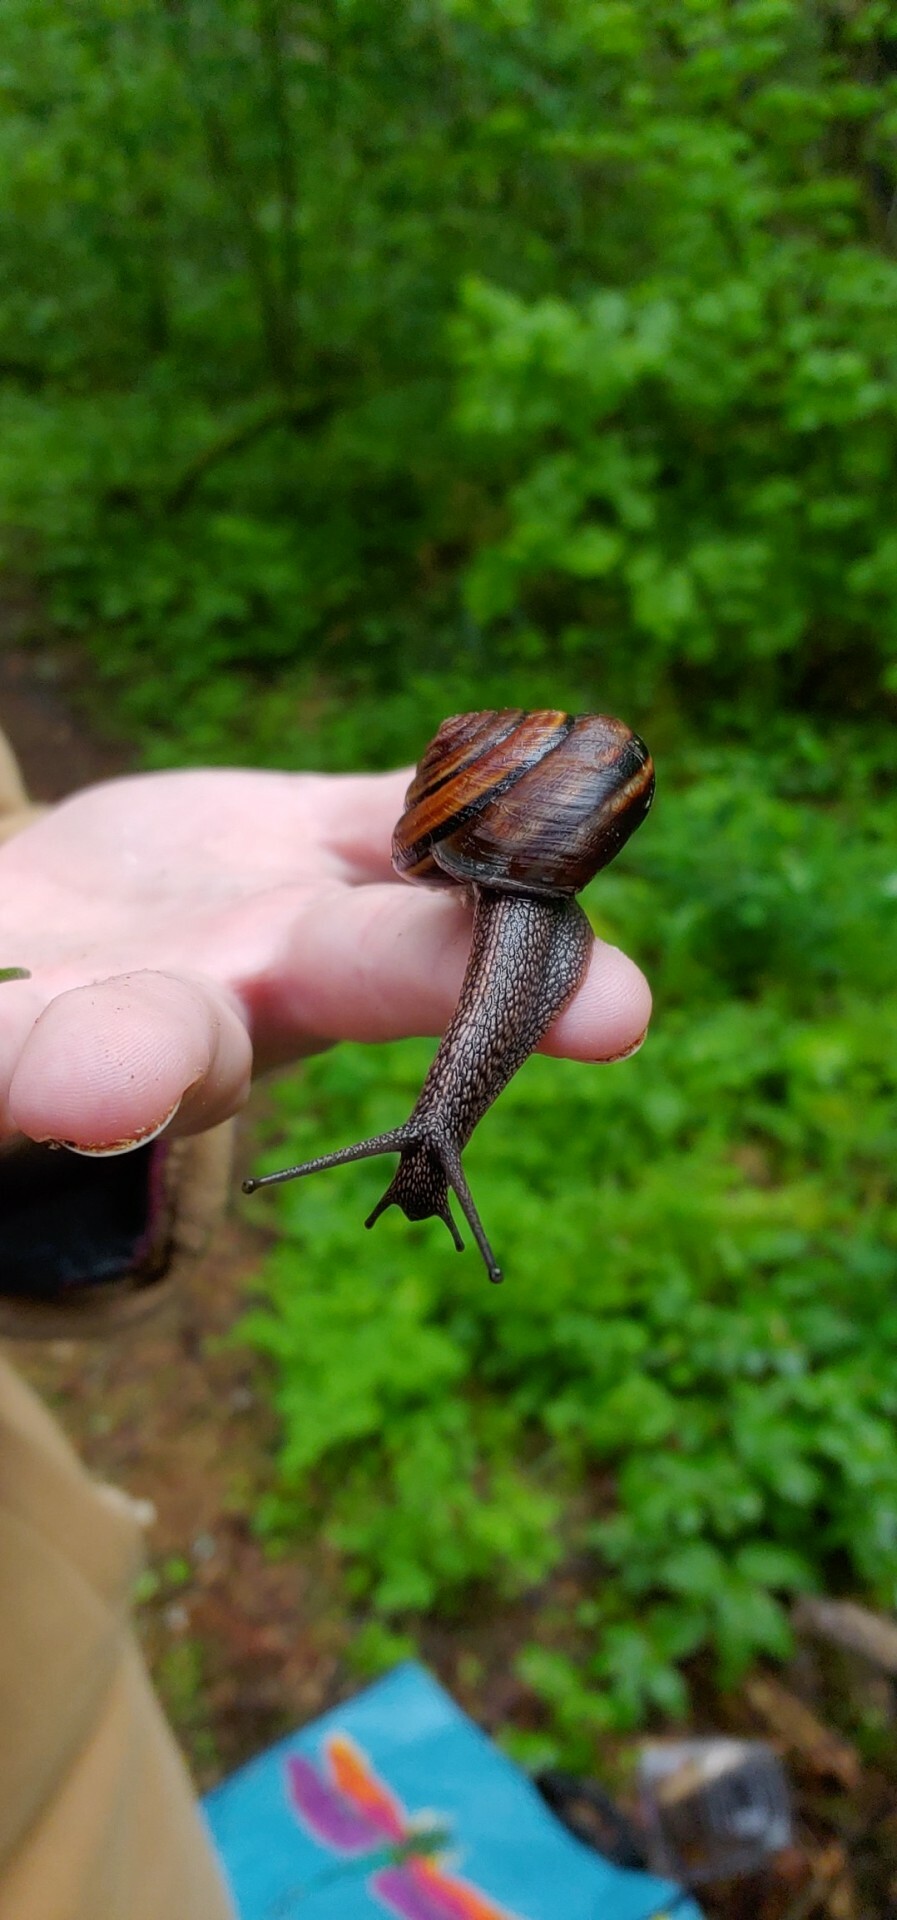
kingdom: Animalia
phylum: Mollusca
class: Gastropoda
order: Stylommatophora
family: Xanthonychidae
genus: Monadenia
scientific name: Monadenia fidelis
